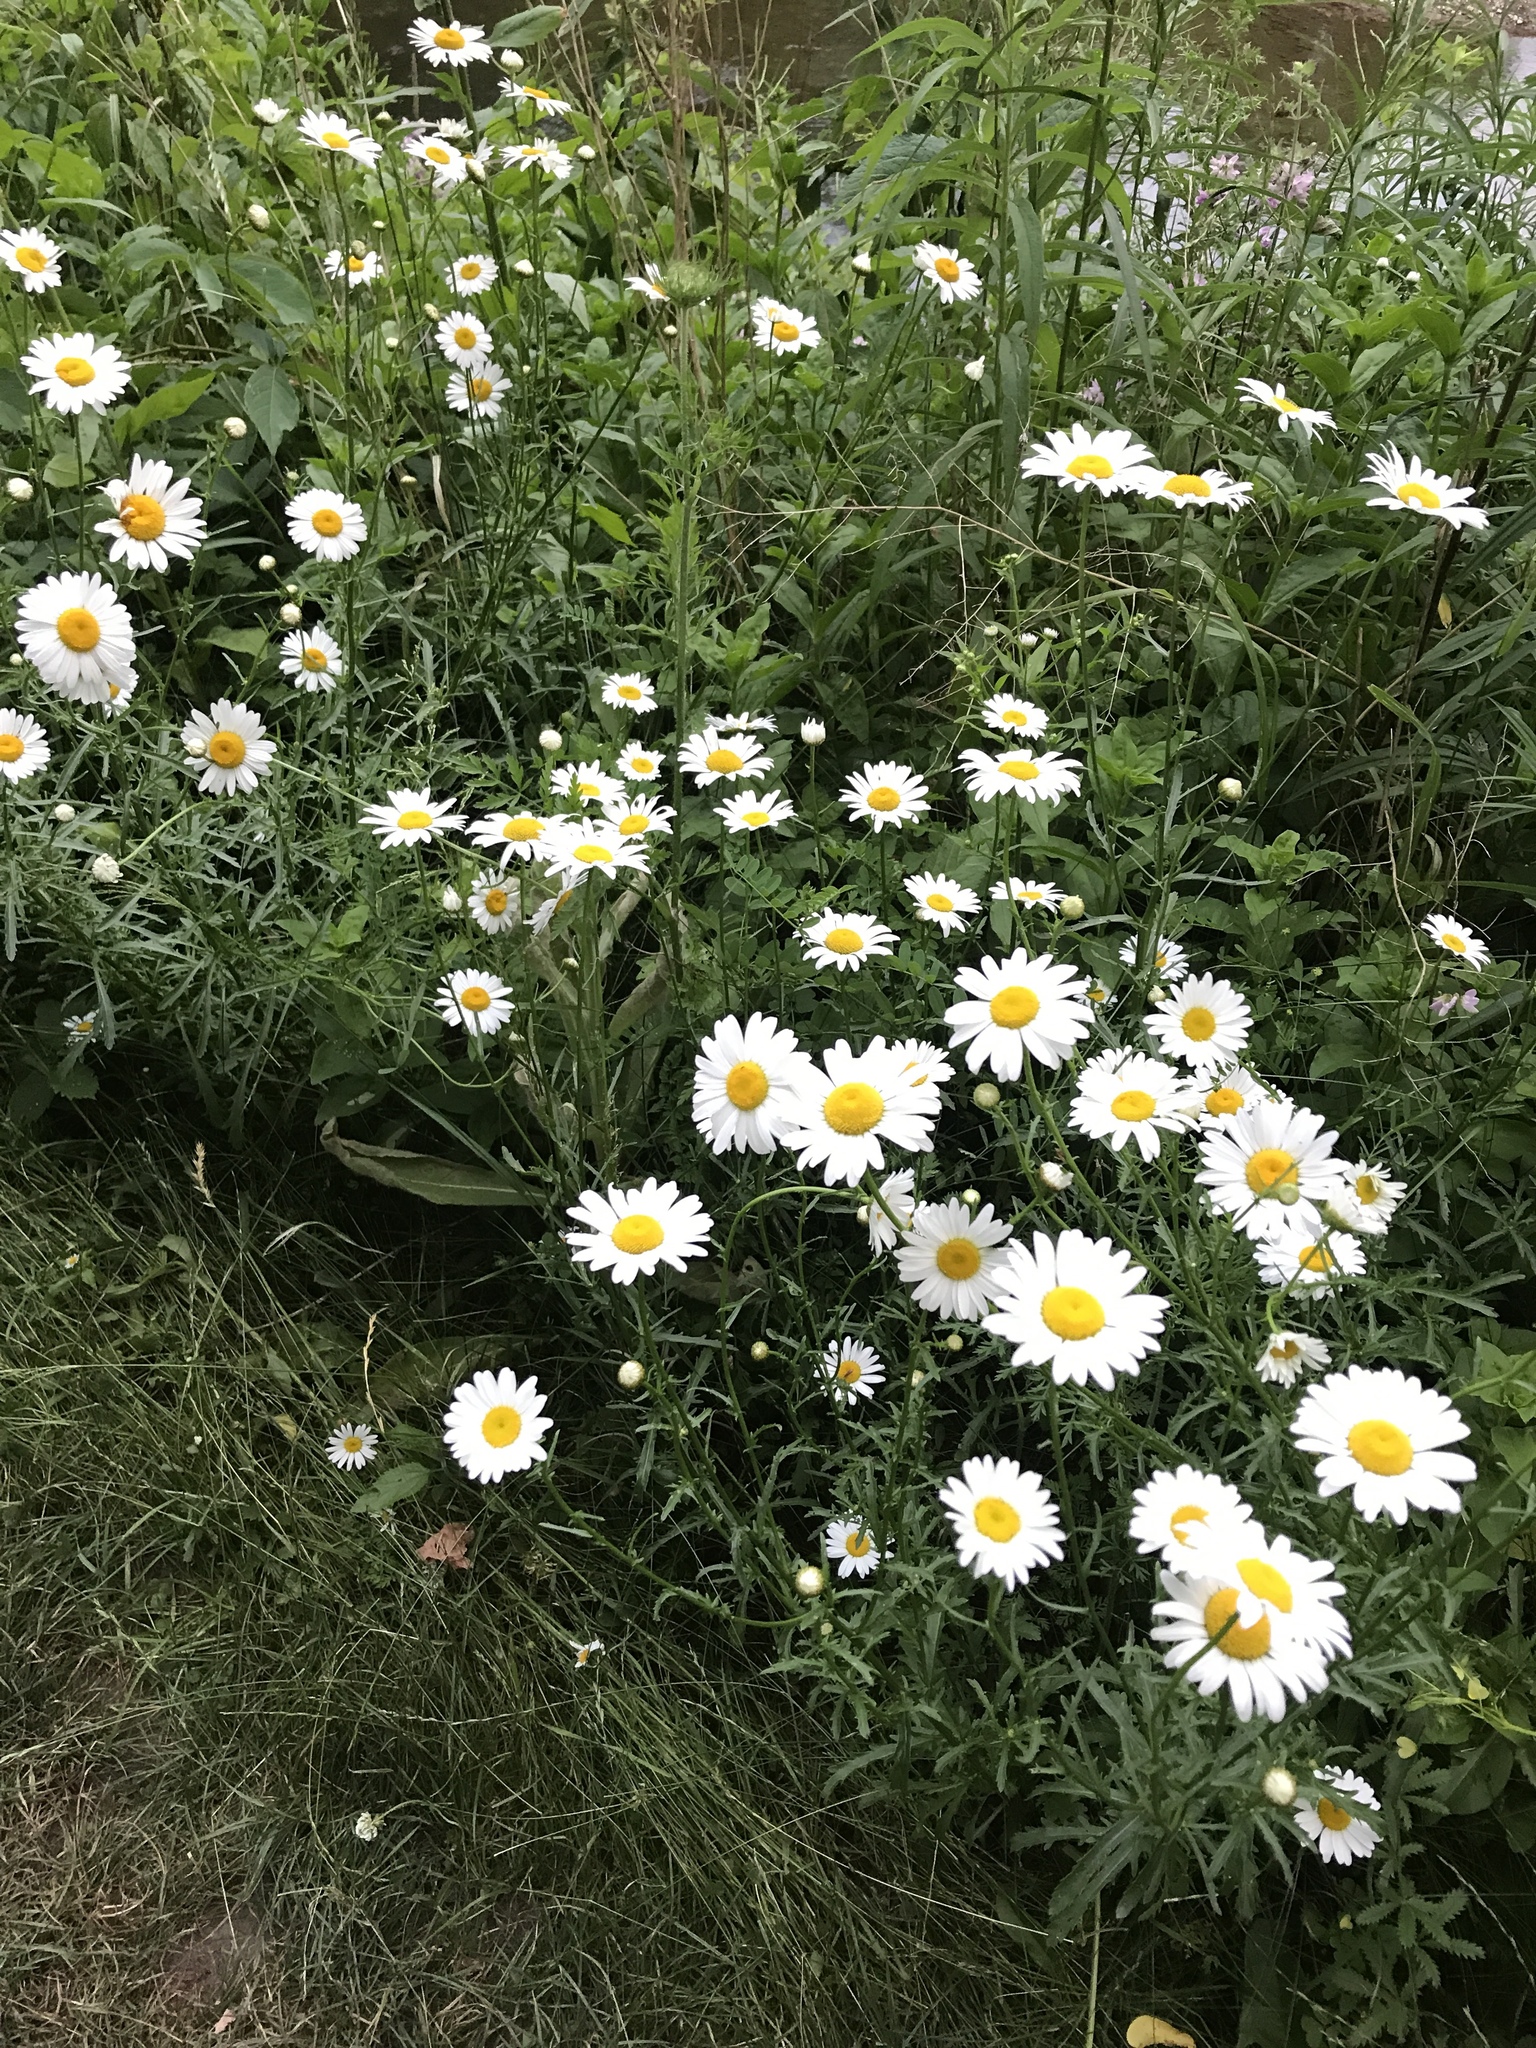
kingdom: Plantae
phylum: Tracheophyta
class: Magnoliopsida
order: Asterales
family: Asteraceae
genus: Leucanthemum
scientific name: Leucanthemum vulgare
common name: Oxeye daisy
